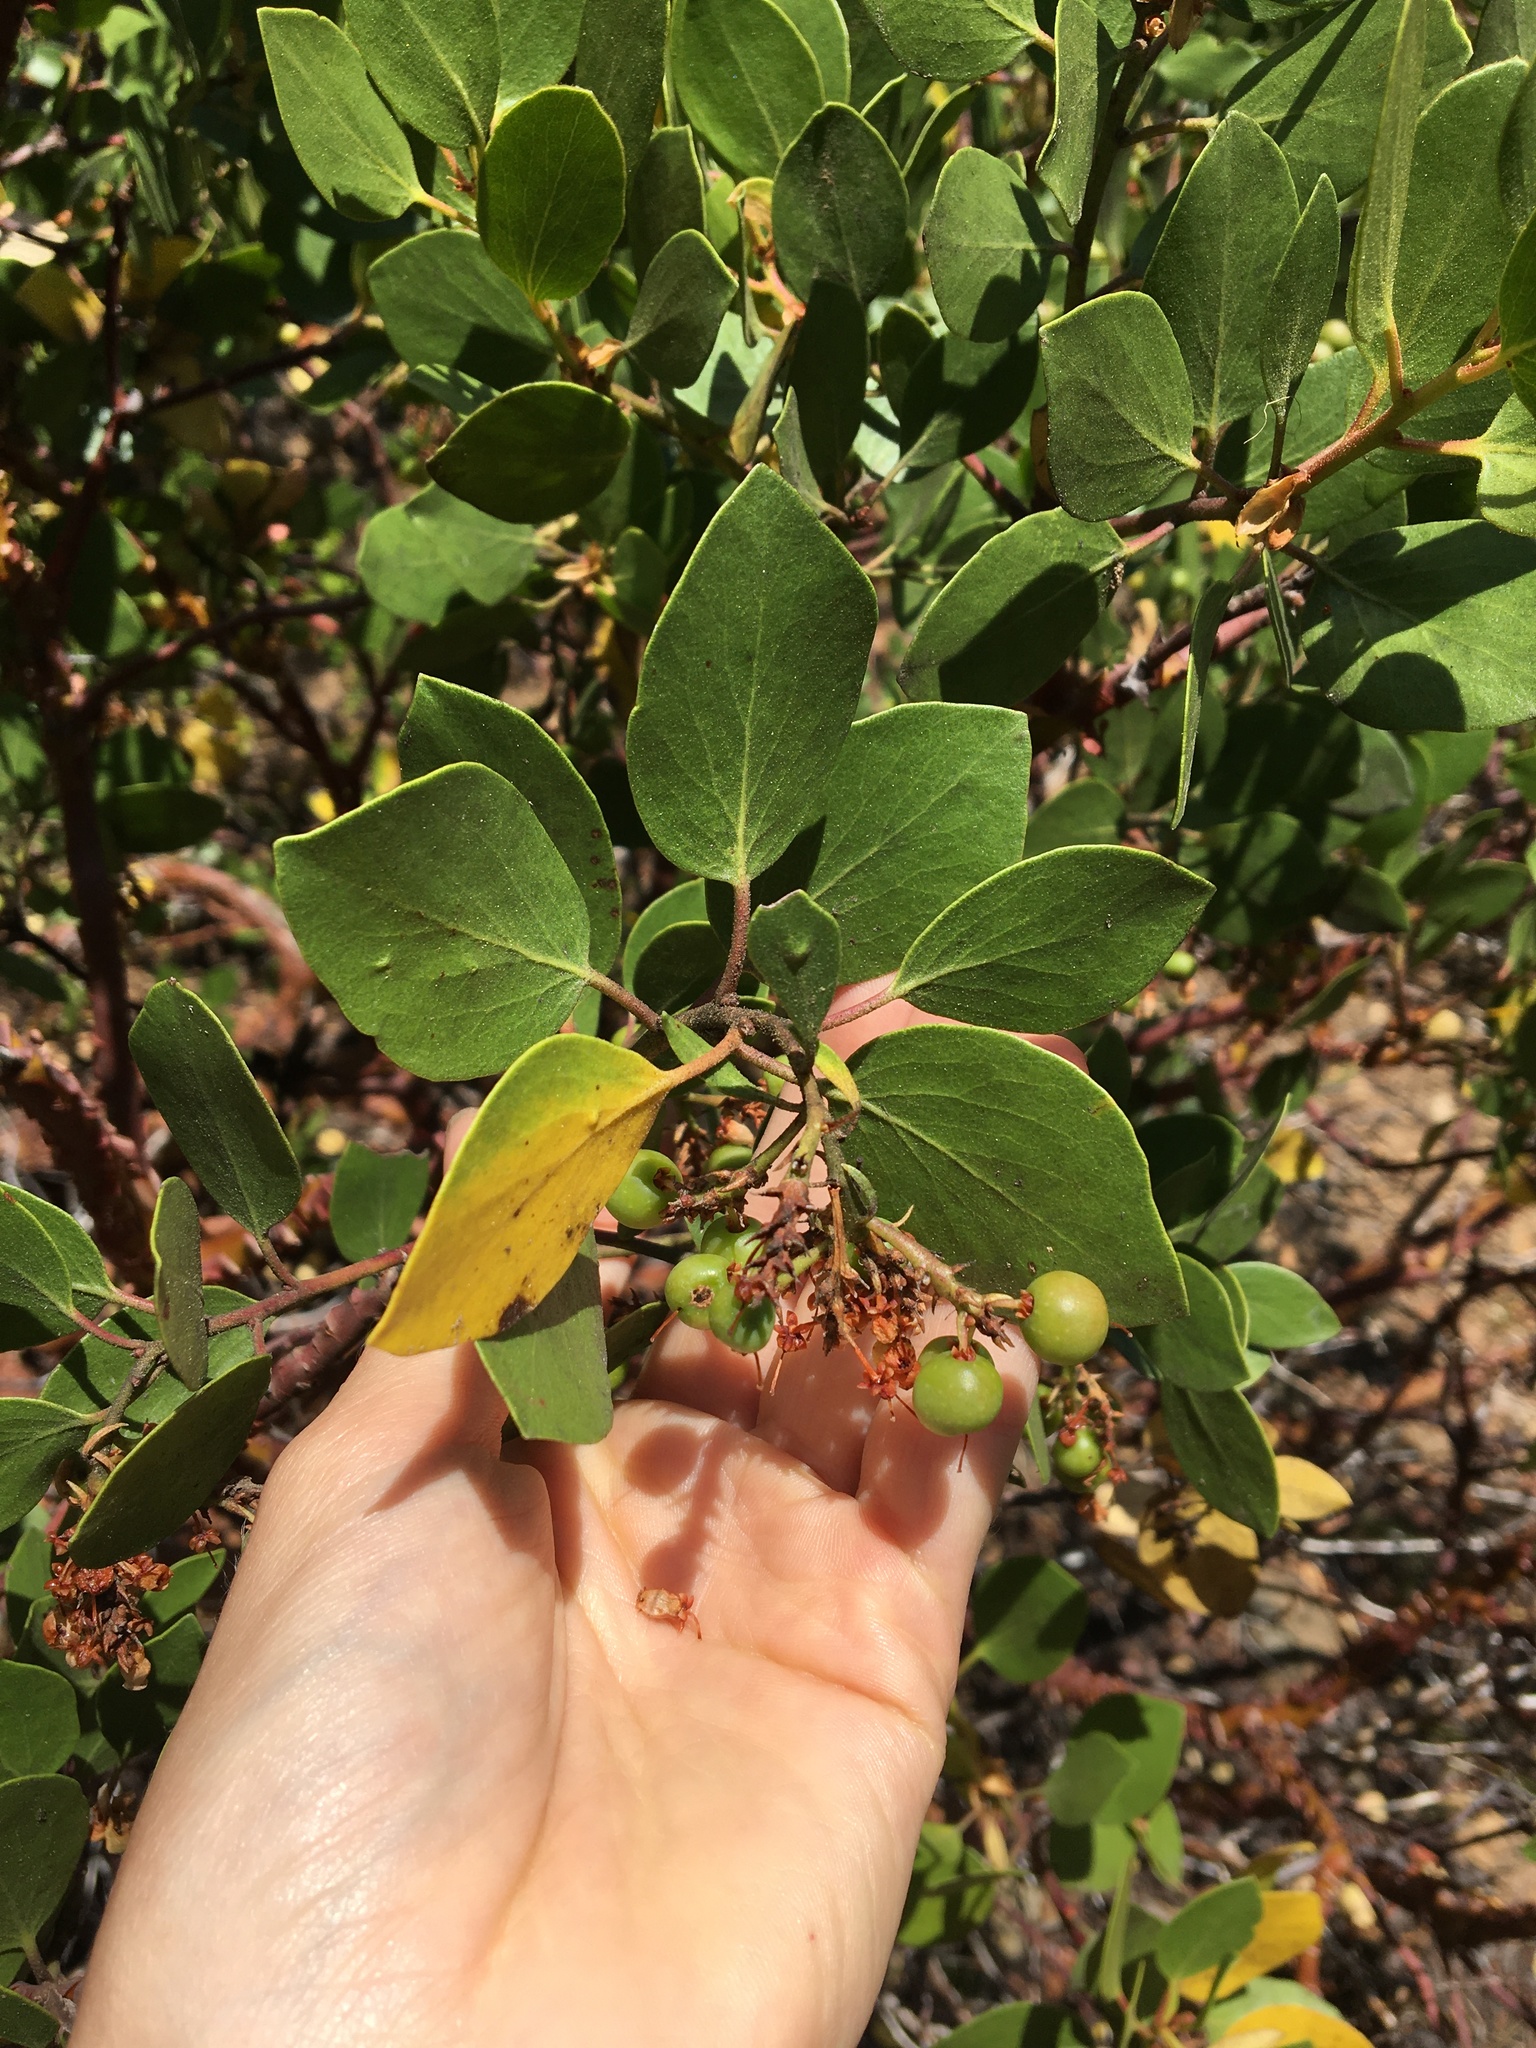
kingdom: Plantae
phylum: Tracheophyta
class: Magnoliopsida
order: Ericales
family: Ericaceae
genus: Arctostaphylos
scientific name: Arctostaphylos patula
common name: Green-leaf manzanita
